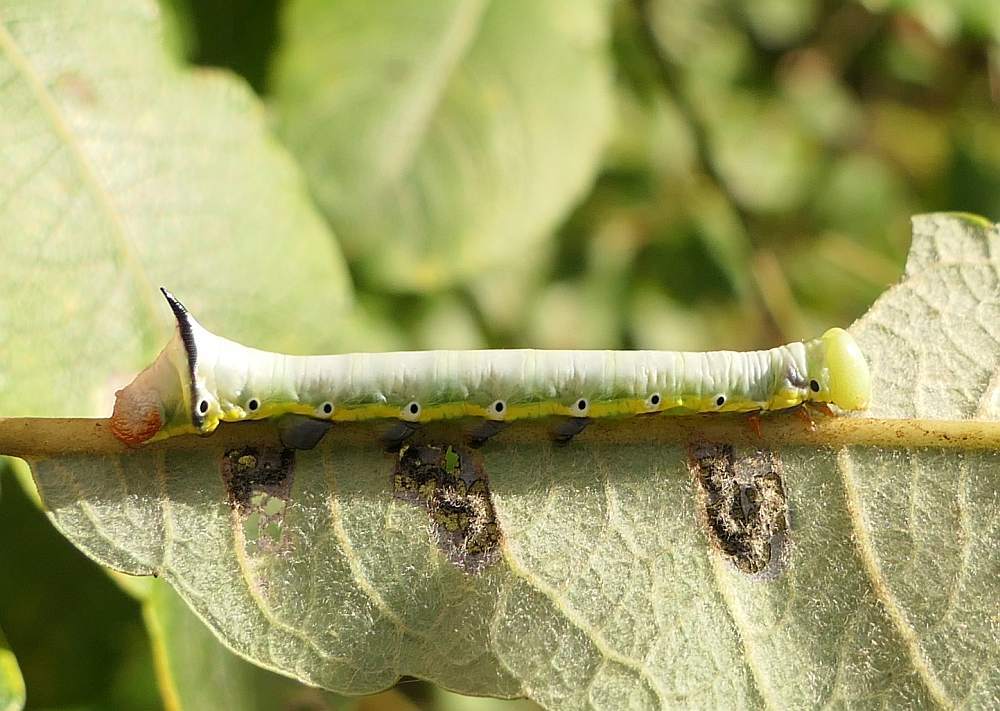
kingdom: Animalia
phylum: Arthropoda
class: Insecta
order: Lepidoptera
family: Notodontidae
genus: Pheosia
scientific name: Pheosia rimosa
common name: Black-rimmed prominent
